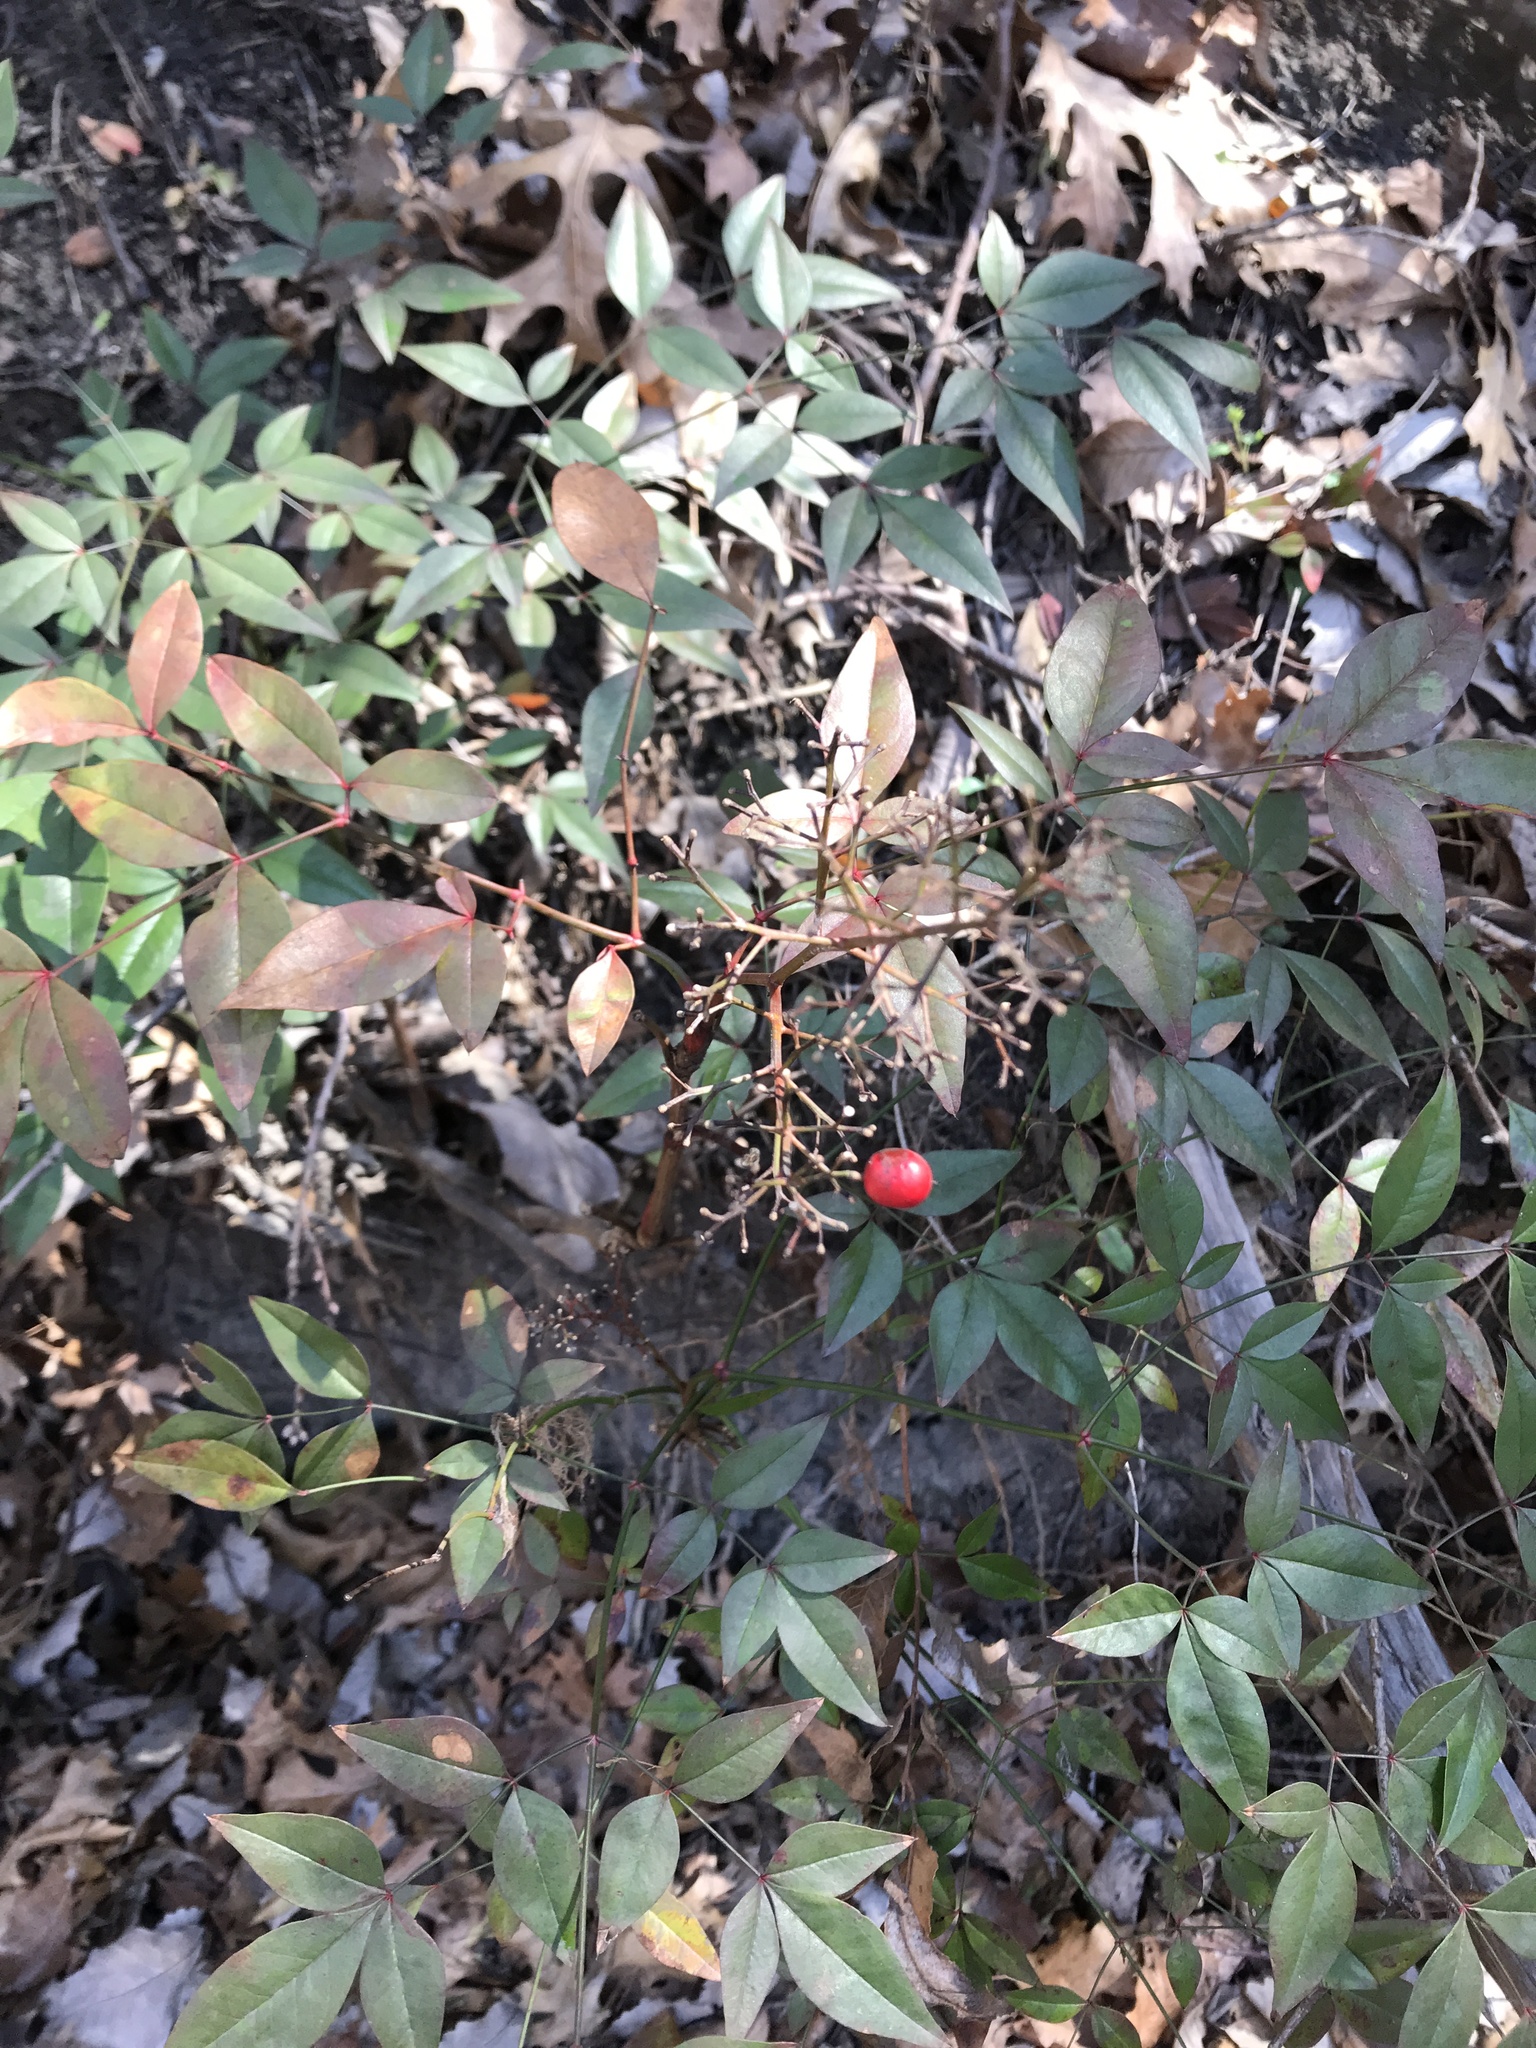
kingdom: Plantae
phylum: Tracheophyta
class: Magnoliopsida
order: Ranunculales
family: Berberidaceae
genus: Nandina
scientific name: Nandina domestica
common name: Sacred bamboo
